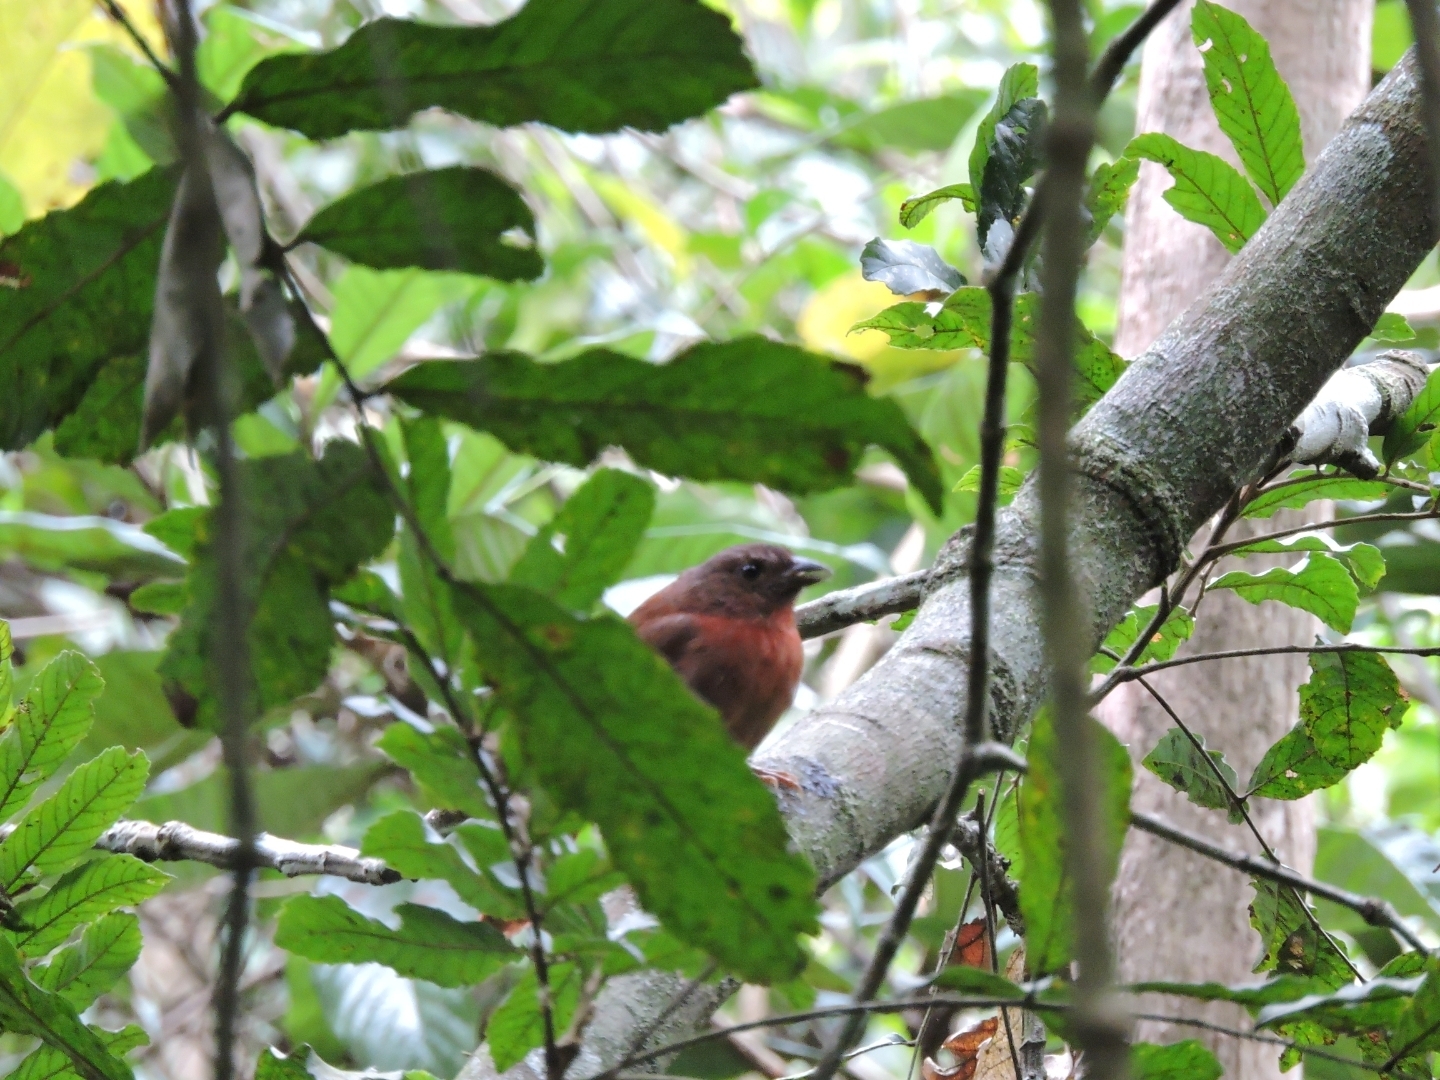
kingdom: Animalia
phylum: Chordata
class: Aves
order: Passeriformes
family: Cardinalidae
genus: Habia
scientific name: Habia rubica
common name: Red-crowned ant-tanager
